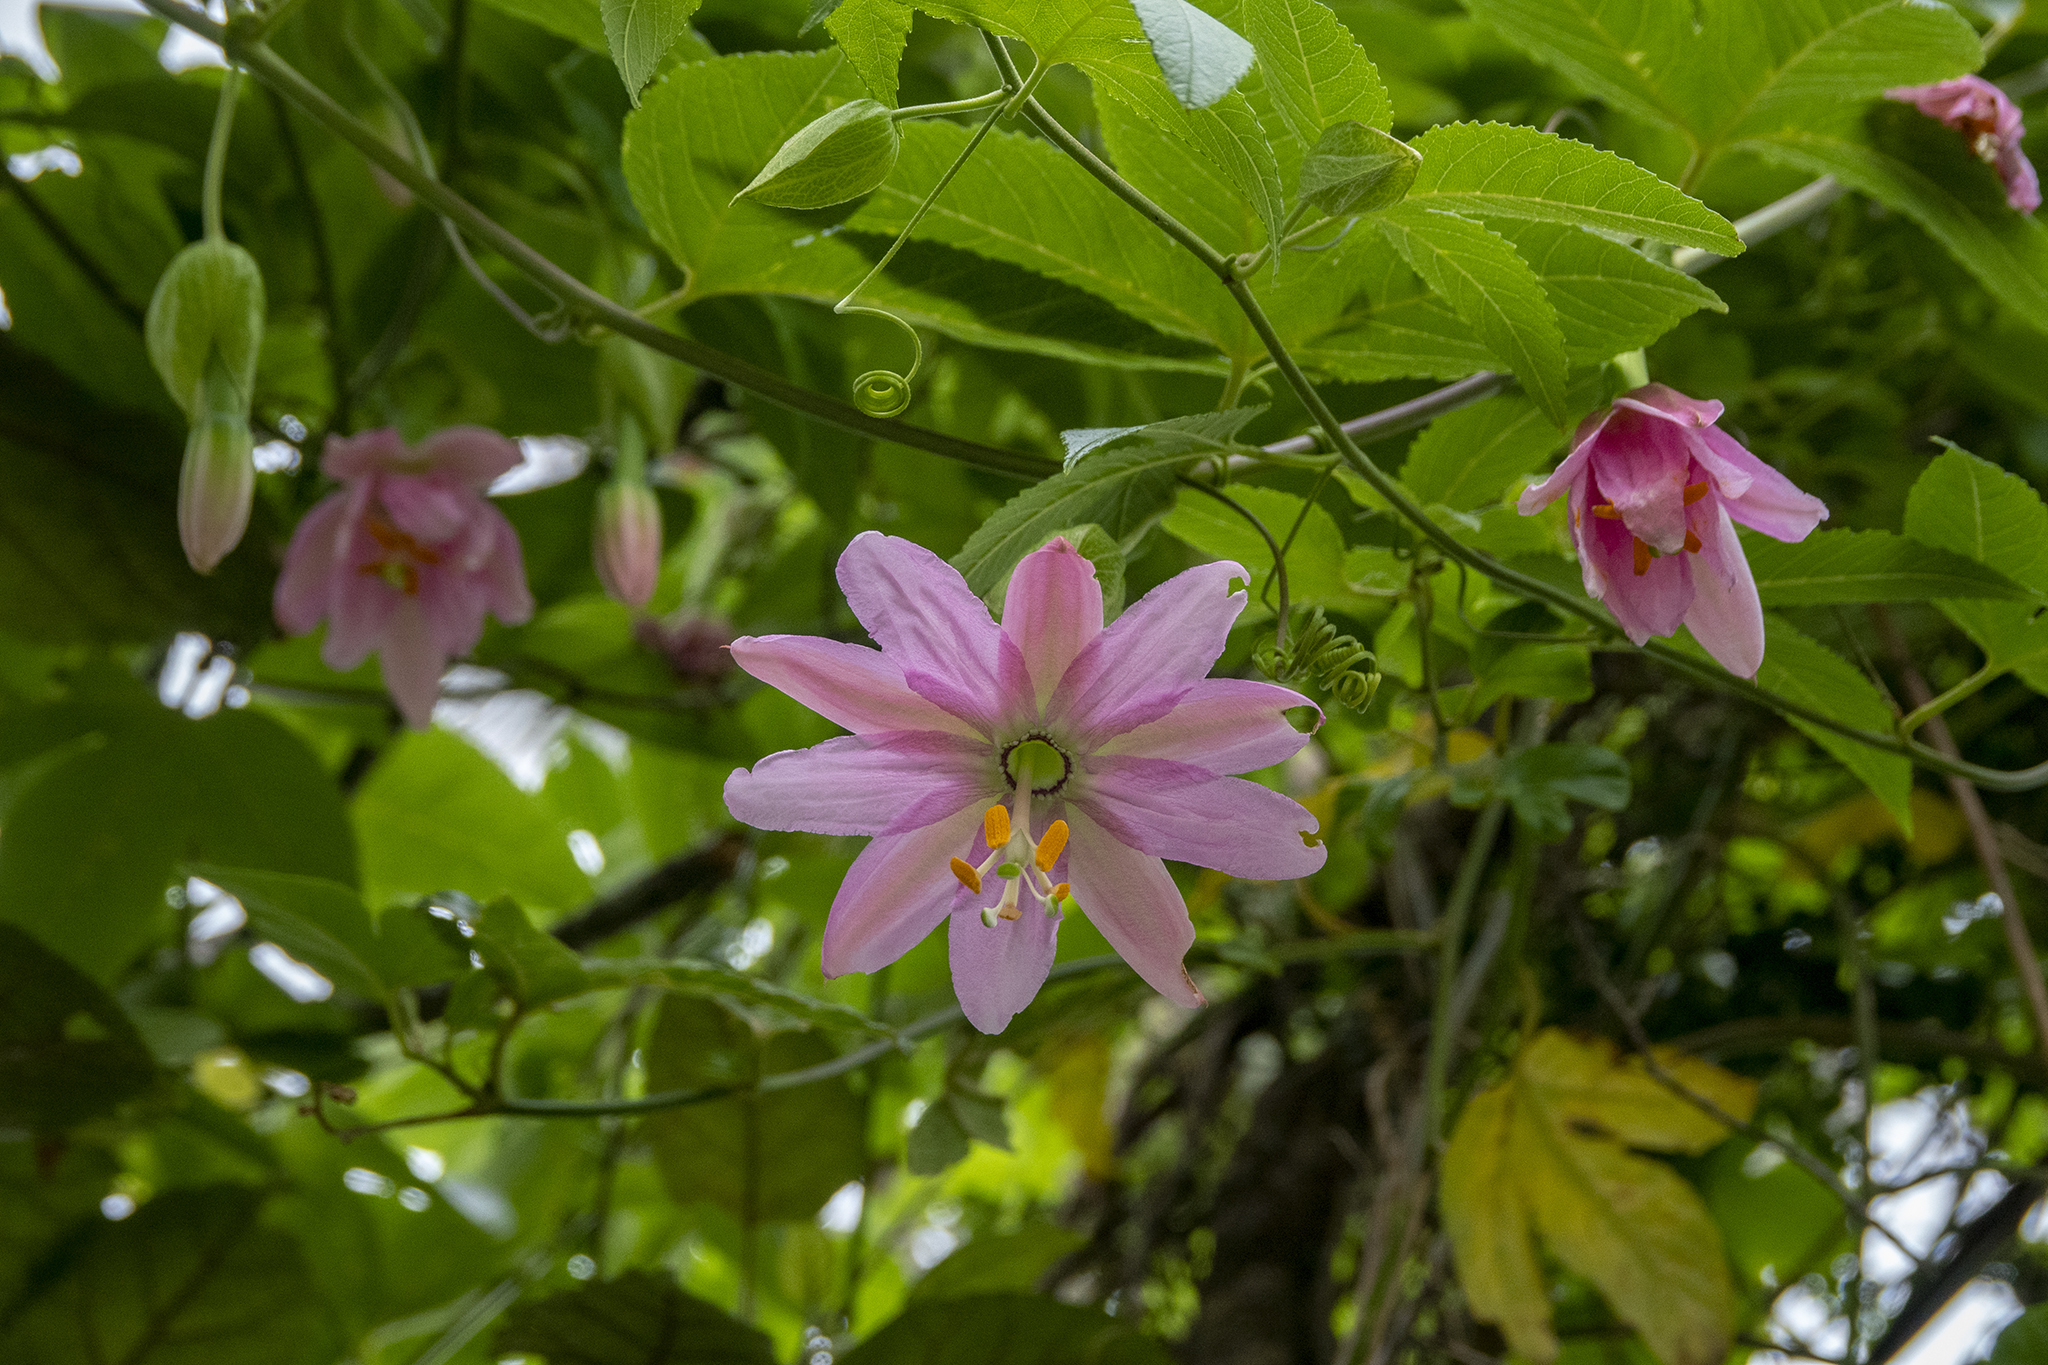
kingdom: Plantae
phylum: Tracheophyta
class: Magnoliopsida
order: Malpighiales
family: Passifloraceae
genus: Passiflora
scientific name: Passiflora tarminiana
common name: Banana poka
